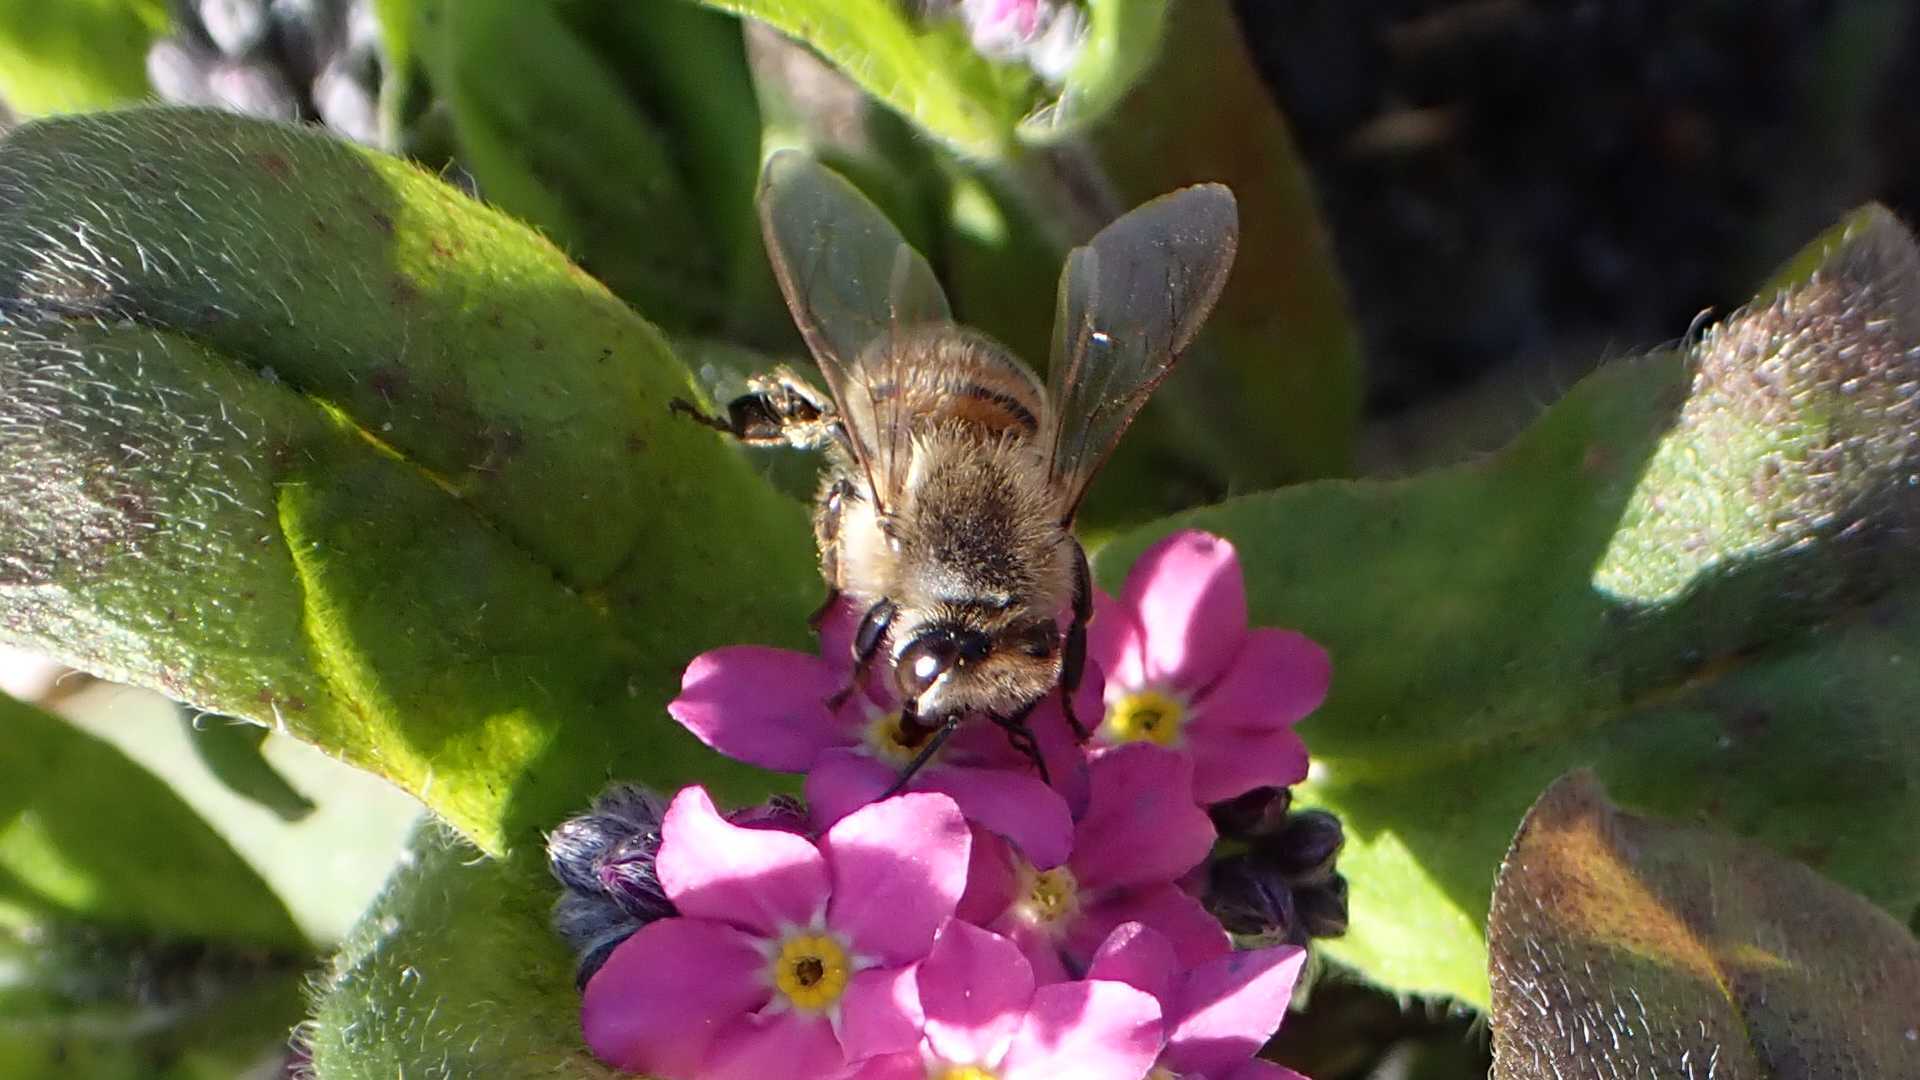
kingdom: Animalia
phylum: Arthropoda
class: Insecta
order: Hymenoptera
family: Apidae
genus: Apis
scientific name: Apis mellifera
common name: Honey bee
